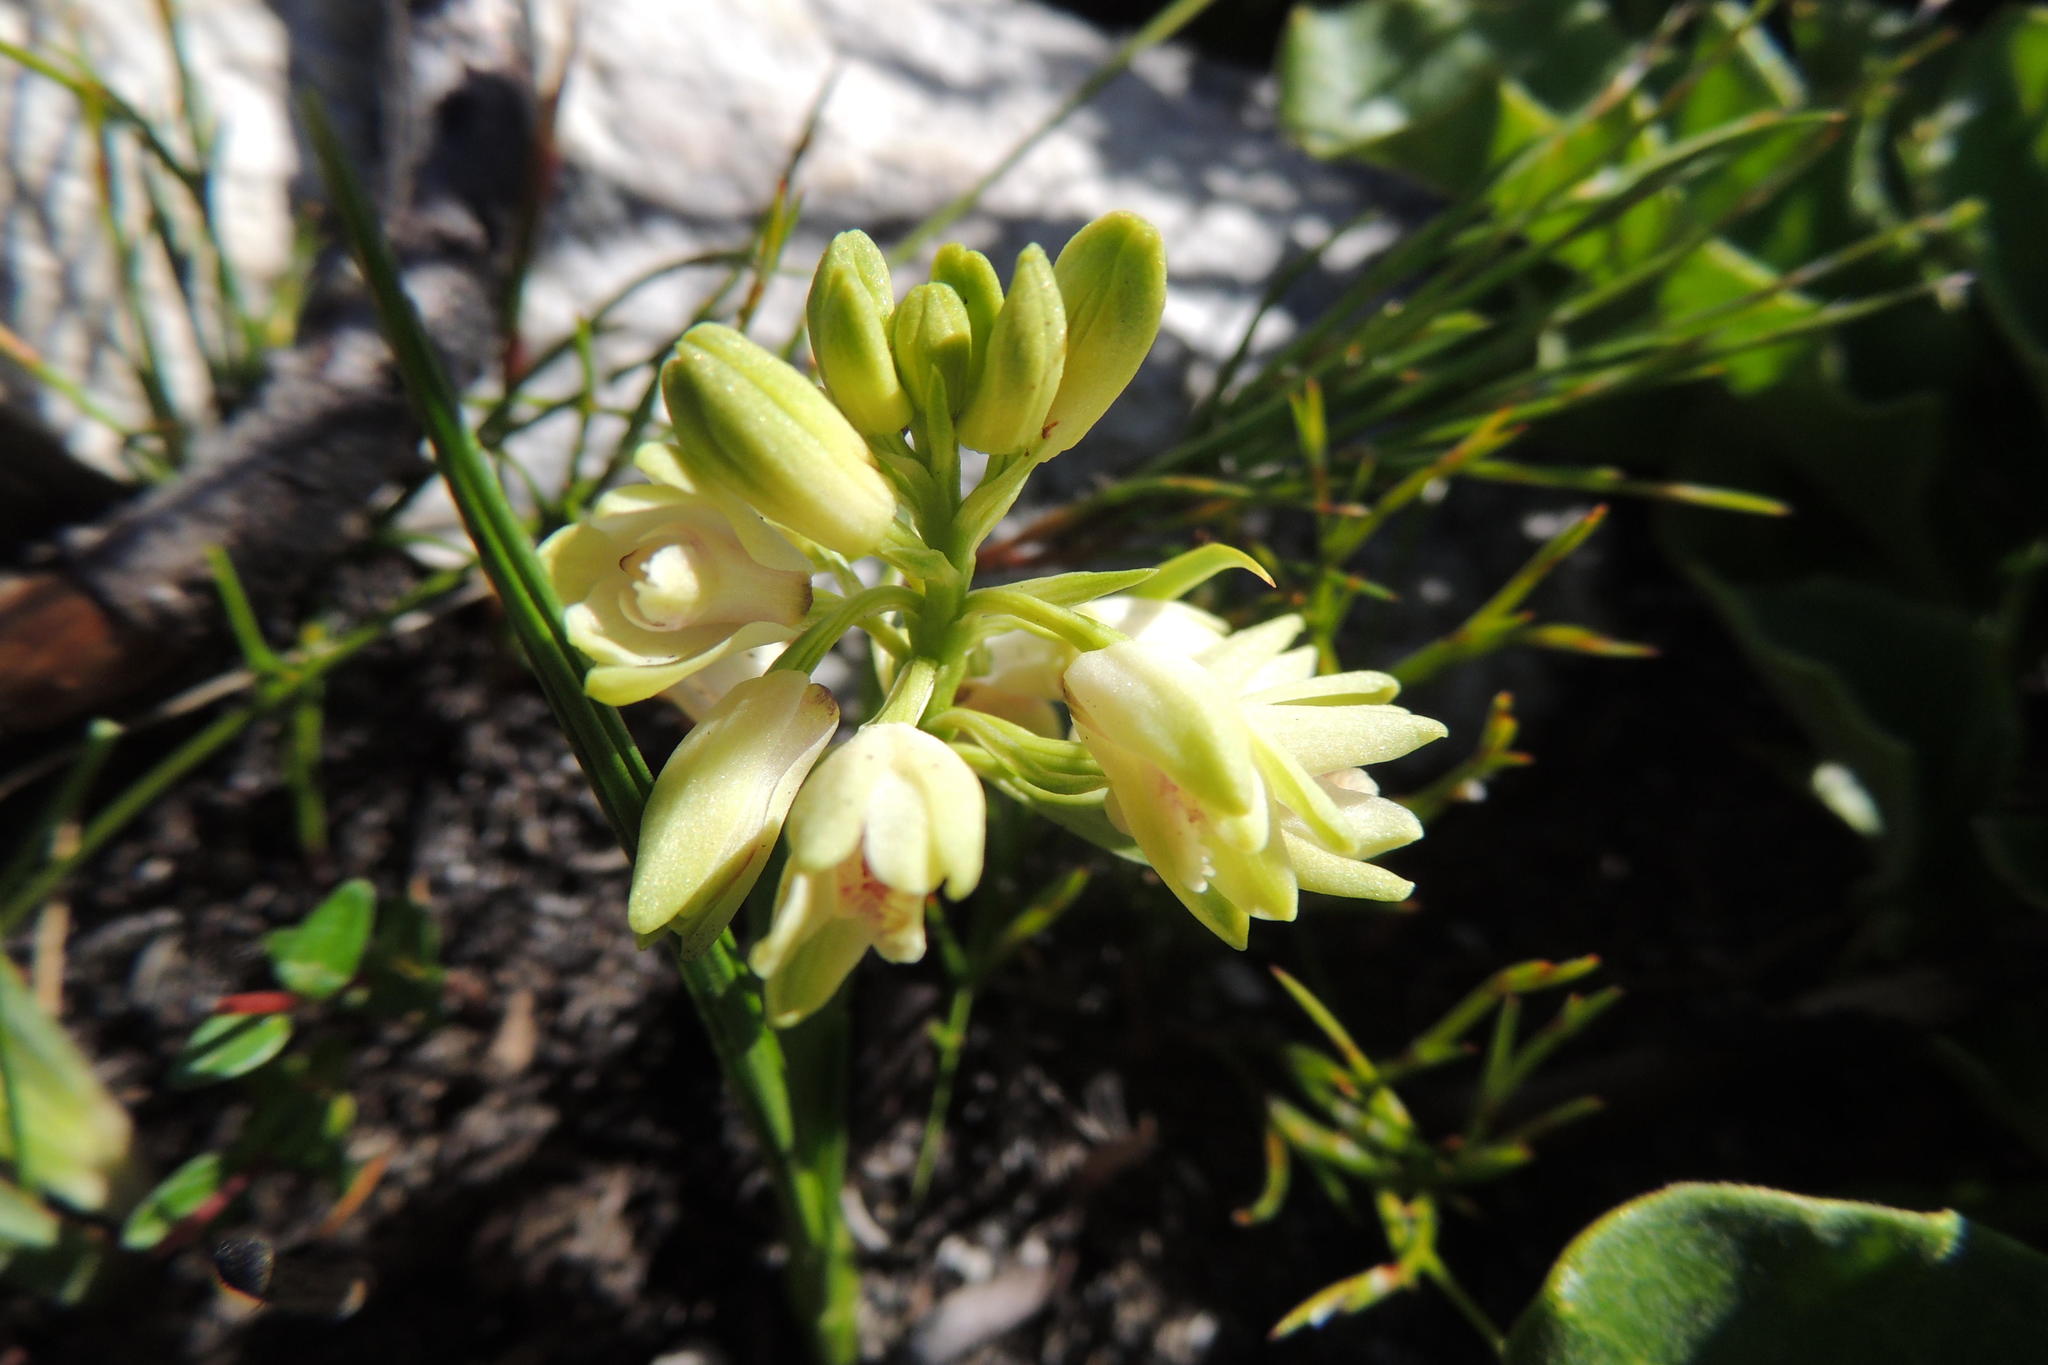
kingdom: Plantae
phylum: Tracheophyta
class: Liliopsida
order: Asparagales
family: Orchidaceae
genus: Eulophia
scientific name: Eulophia aculeata
